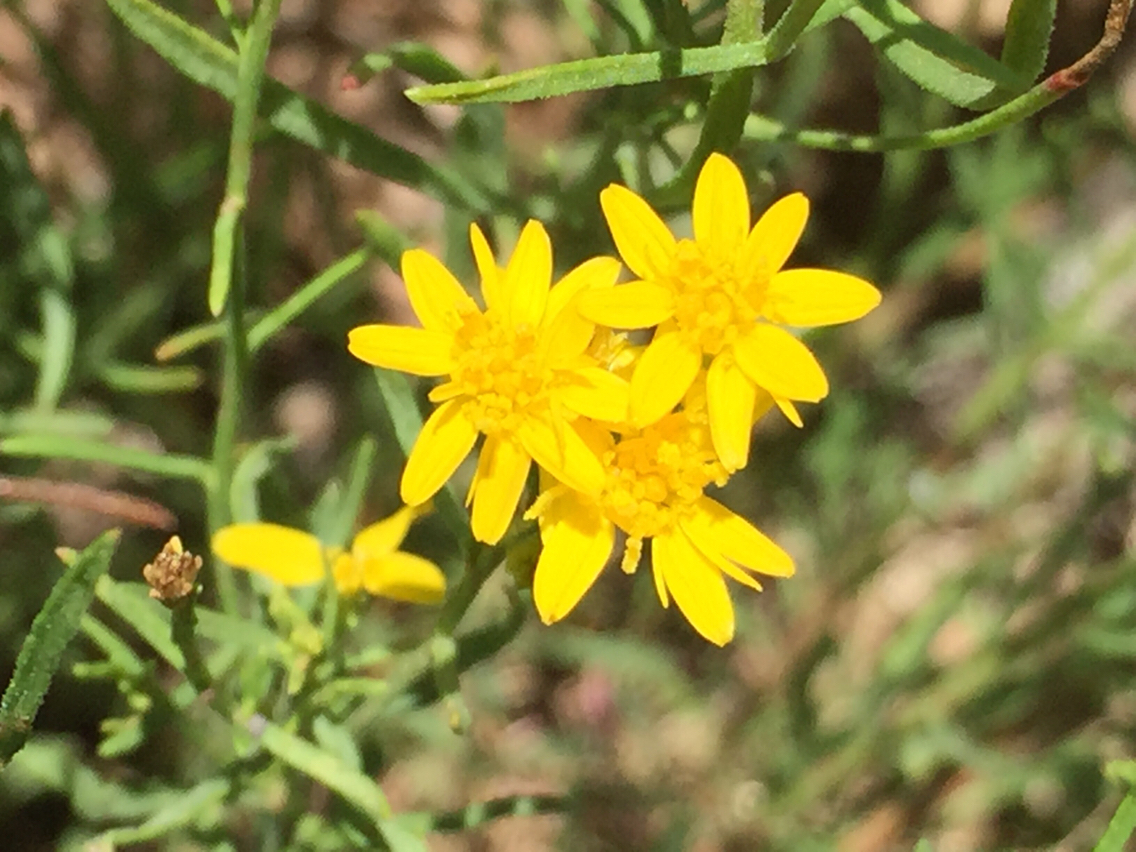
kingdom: Plantae
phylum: Tracheophyta
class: Magnoliopsida
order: Asterales
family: Asteraceae
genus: Gutierrezia
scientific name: Gutierrezia sarothrae
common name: Broom snakeweed
